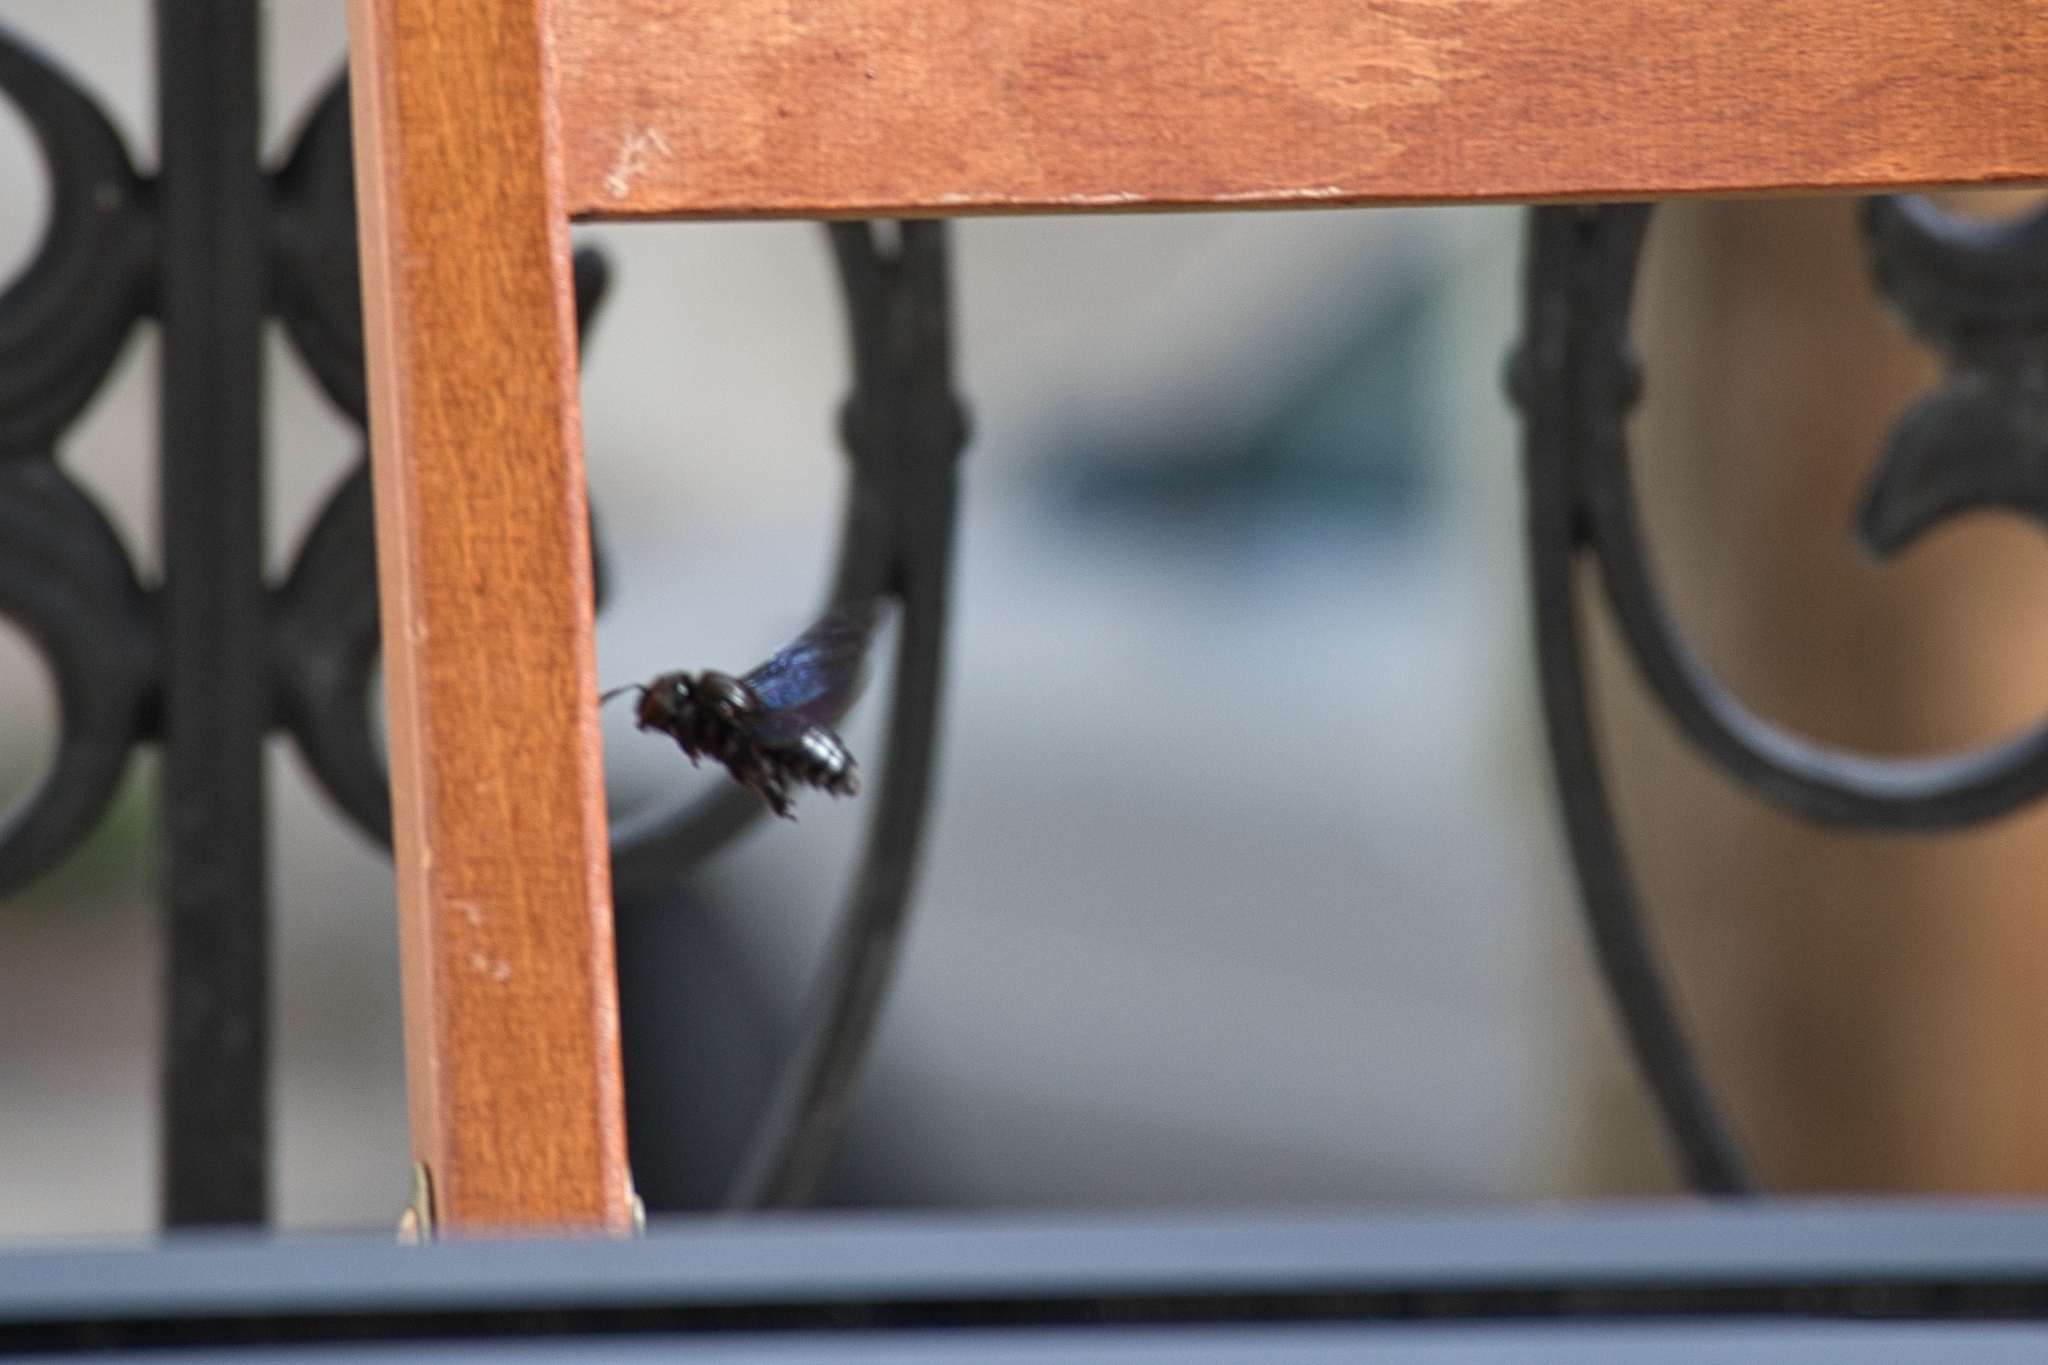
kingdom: Animalia
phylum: Arthropoda
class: Insecta
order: Hymenoptera
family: Apidae
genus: Xylocopa
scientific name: Xylocopa violacea
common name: Violet carpenter bee
